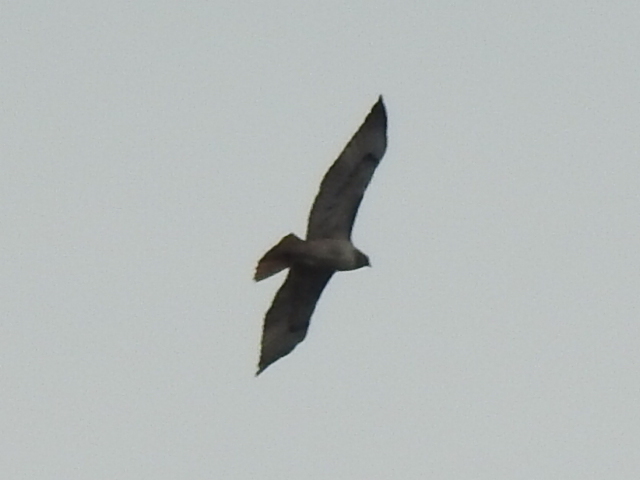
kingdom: Animalia
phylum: Chordata
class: Aves
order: Accipitriformes
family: Accipitridae
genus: Buteo
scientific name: Buteo jamaicensis
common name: Red-tailed hawk
